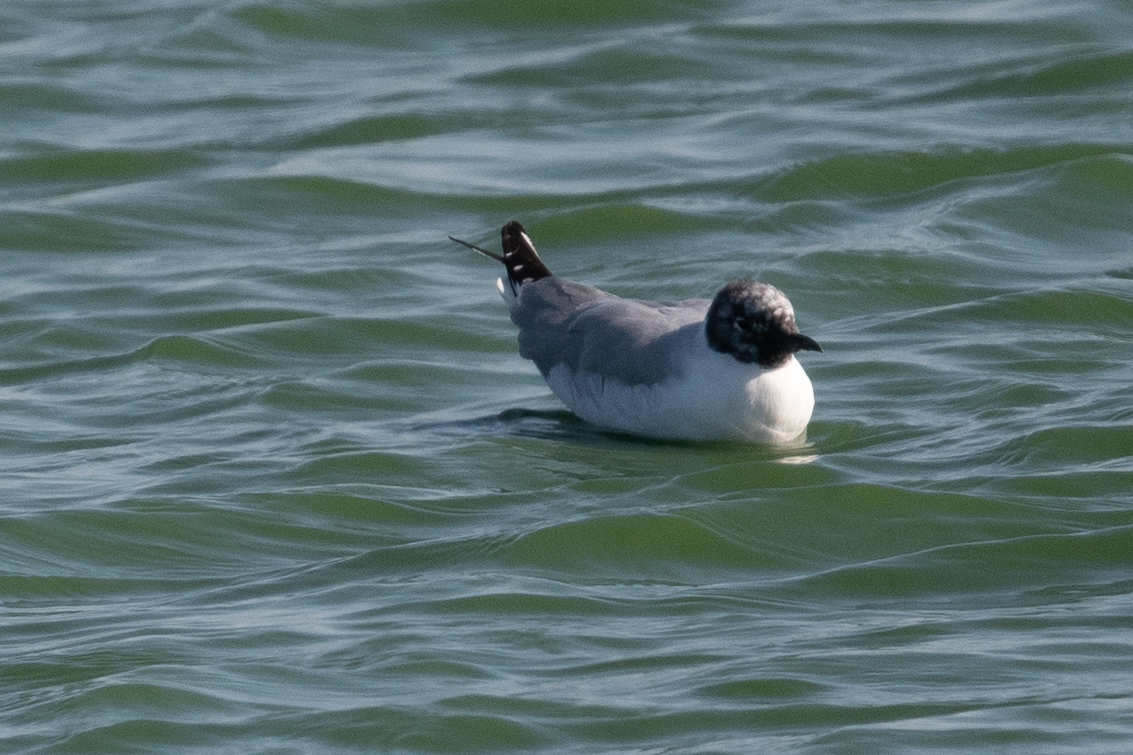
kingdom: Animalia
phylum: Chordata
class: Aves
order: Charadriiformes
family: Laridae
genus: Chroicocephalus
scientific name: Chroicocephalus philadelphia
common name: Bonaparte's gull
